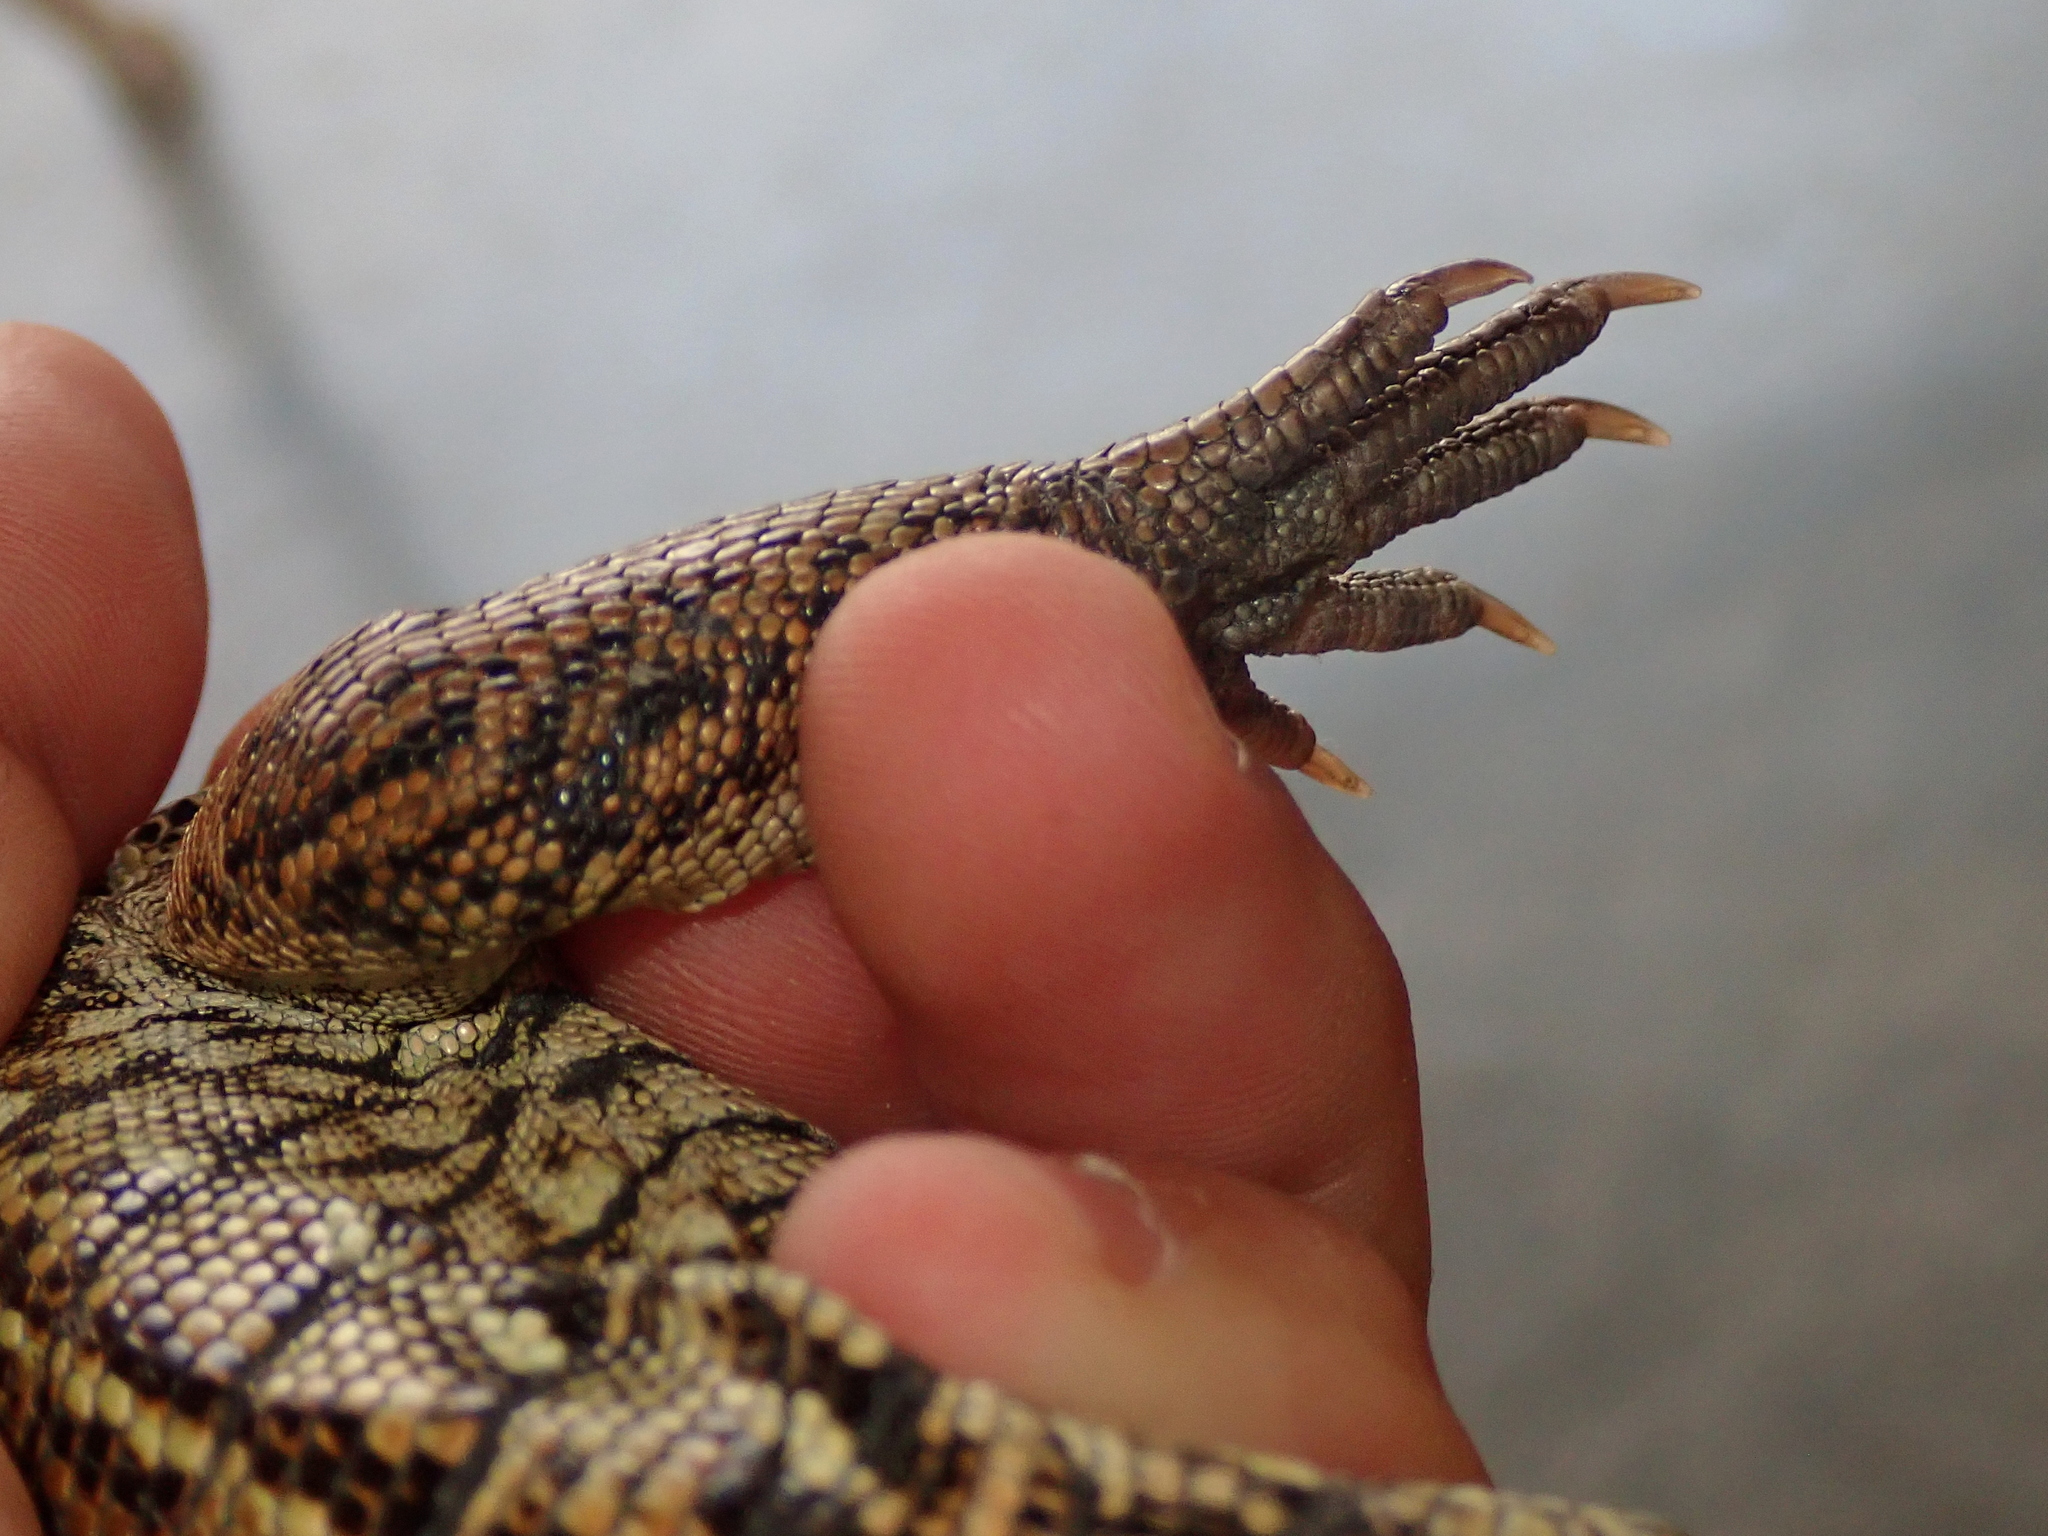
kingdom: Animalia
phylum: Chordata
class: Squamata
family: Teiidae
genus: Tupinambis
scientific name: Tupinambis quadrilineatus
